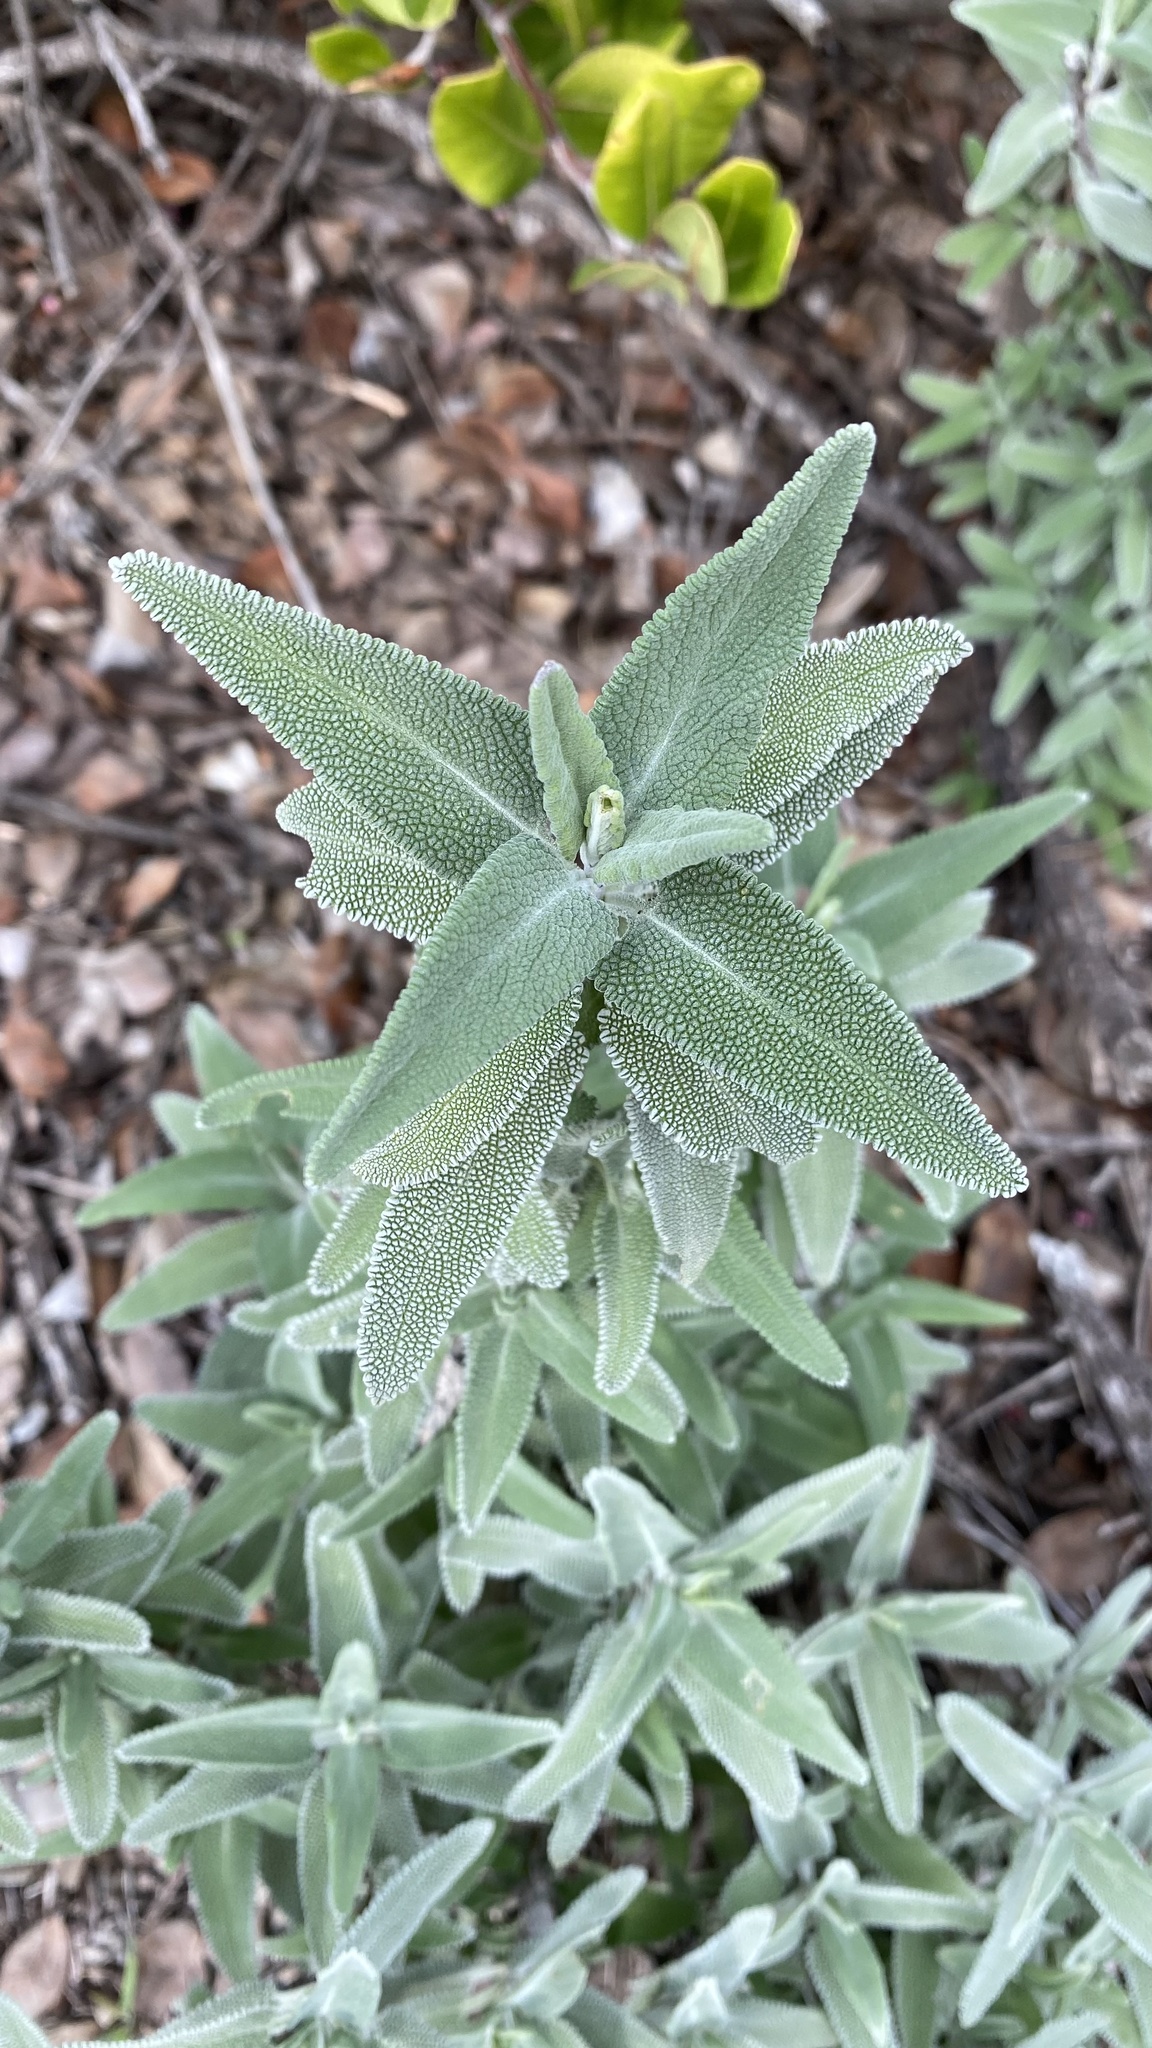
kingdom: Plantae
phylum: Tracheophyta
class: Magnoliopsida
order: Lamiales
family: Lamiaceae
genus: Salvia
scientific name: Salvia leucophylla
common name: Purple sage
